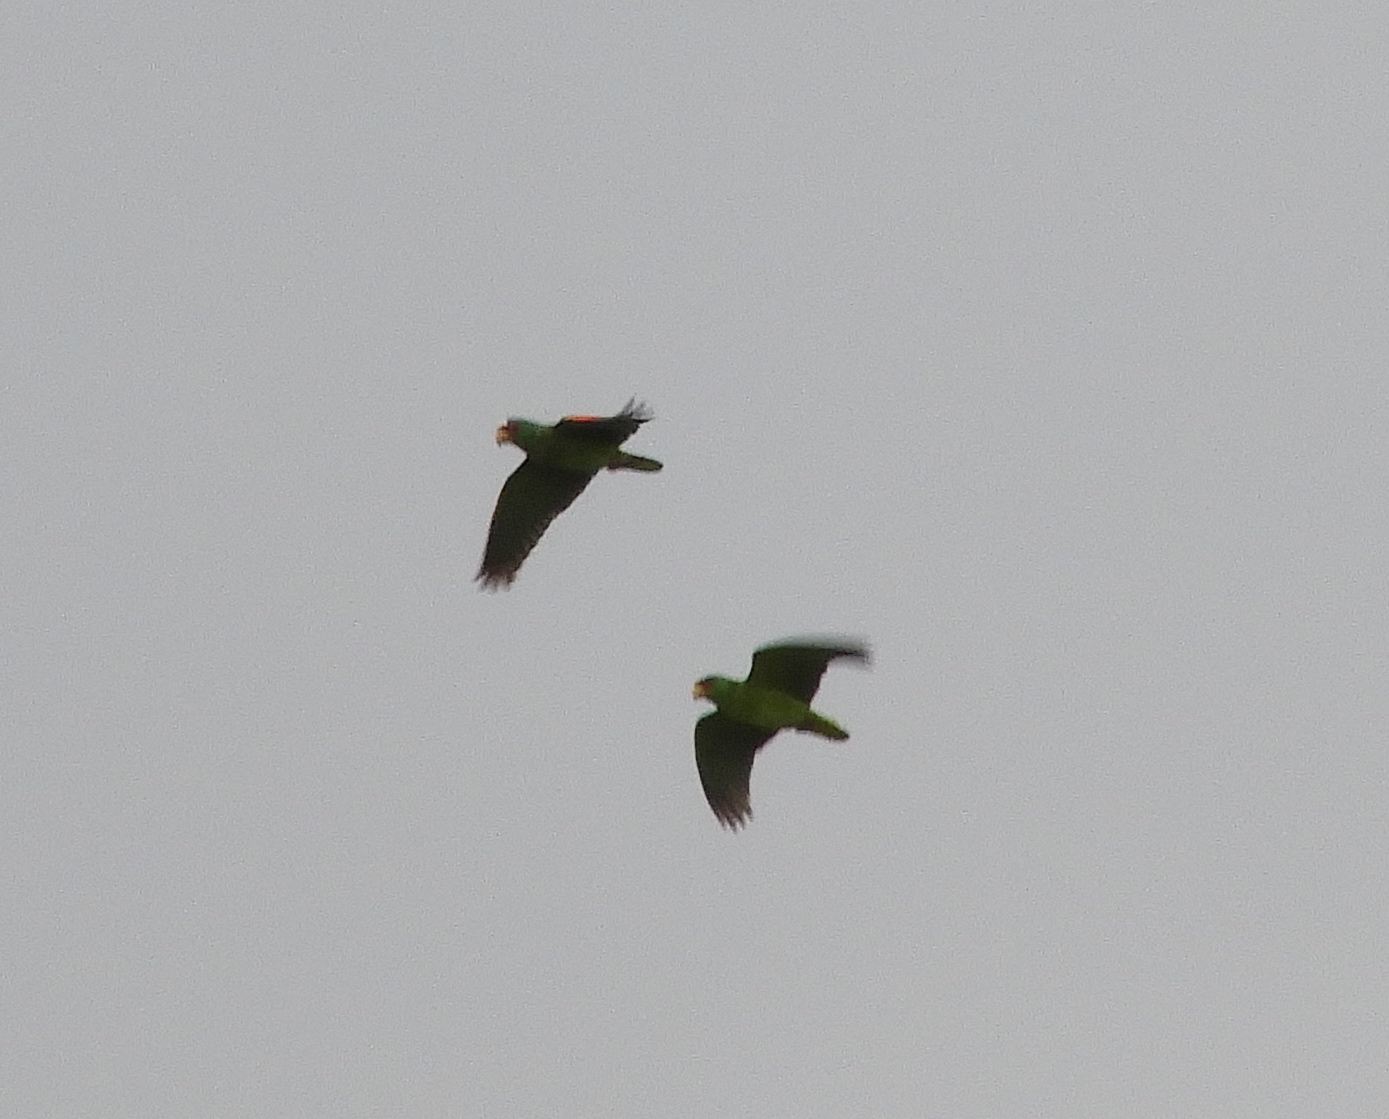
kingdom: Animalia
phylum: Chordata
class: Aves
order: Psittaciformes
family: Psittacidae
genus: Amazona
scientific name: Amazona albifrons
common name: White-fronted amazon
